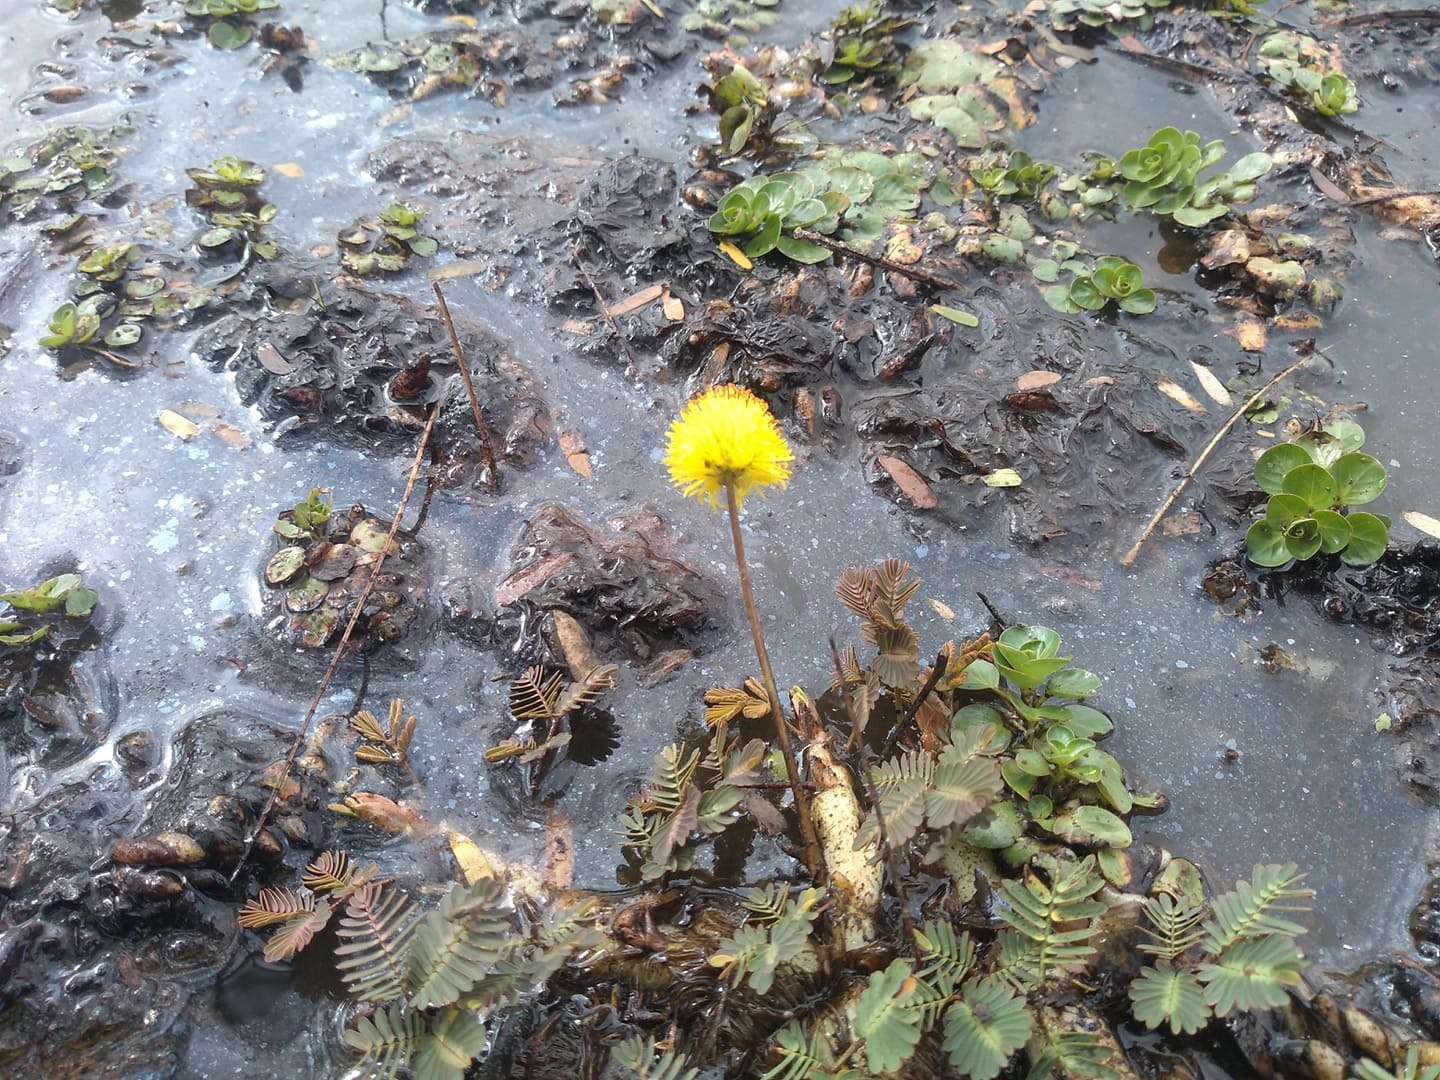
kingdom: Plantae
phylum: Tracheophyta
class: Magnoliopsida
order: Fabales
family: Fabaceae
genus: Neptunia
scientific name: Neptunia prostrata
